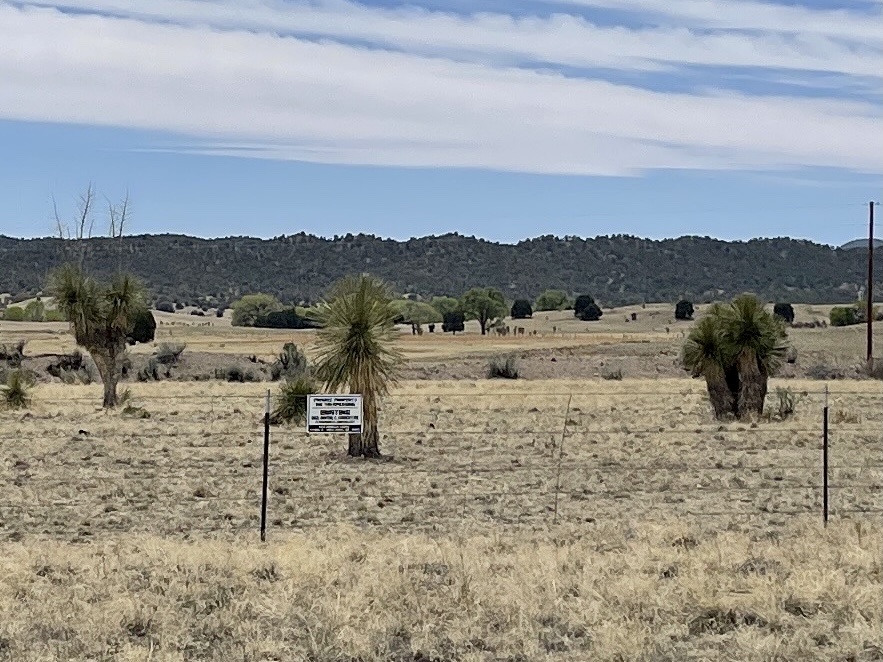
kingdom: Plantae
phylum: Tracheophyta
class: Liliopsida
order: Asparagales
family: Asparagaceae
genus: Yucca
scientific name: Yucca elata
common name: Palmella
